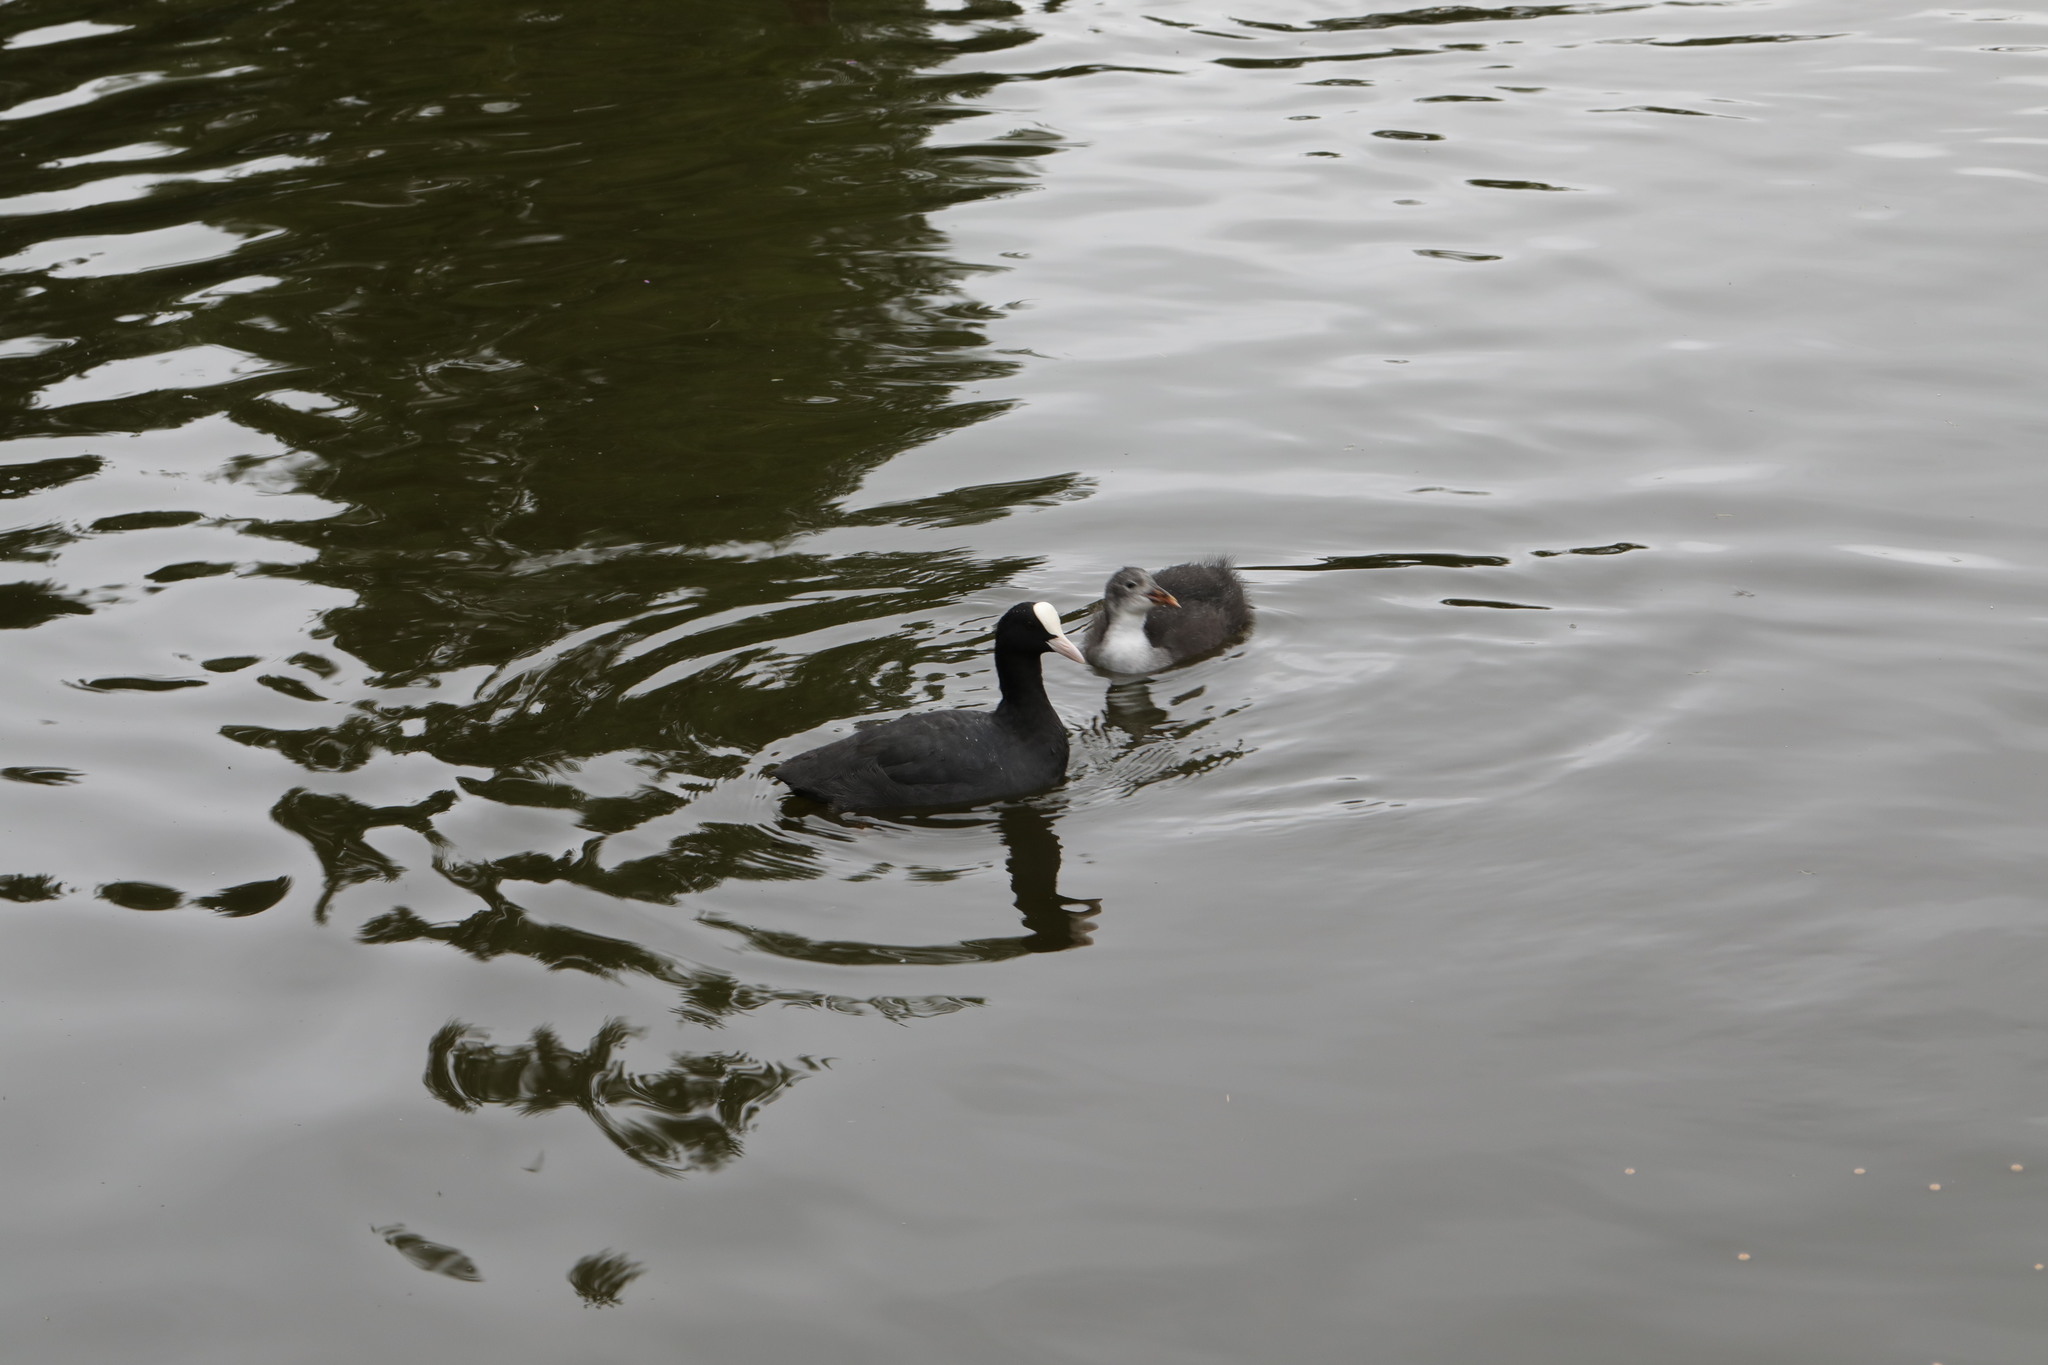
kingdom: Animalia
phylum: Chordata
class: Aves
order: Gruiformes
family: Rallidae
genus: Fulica
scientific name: Fulica atra
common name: Eurasian coot
